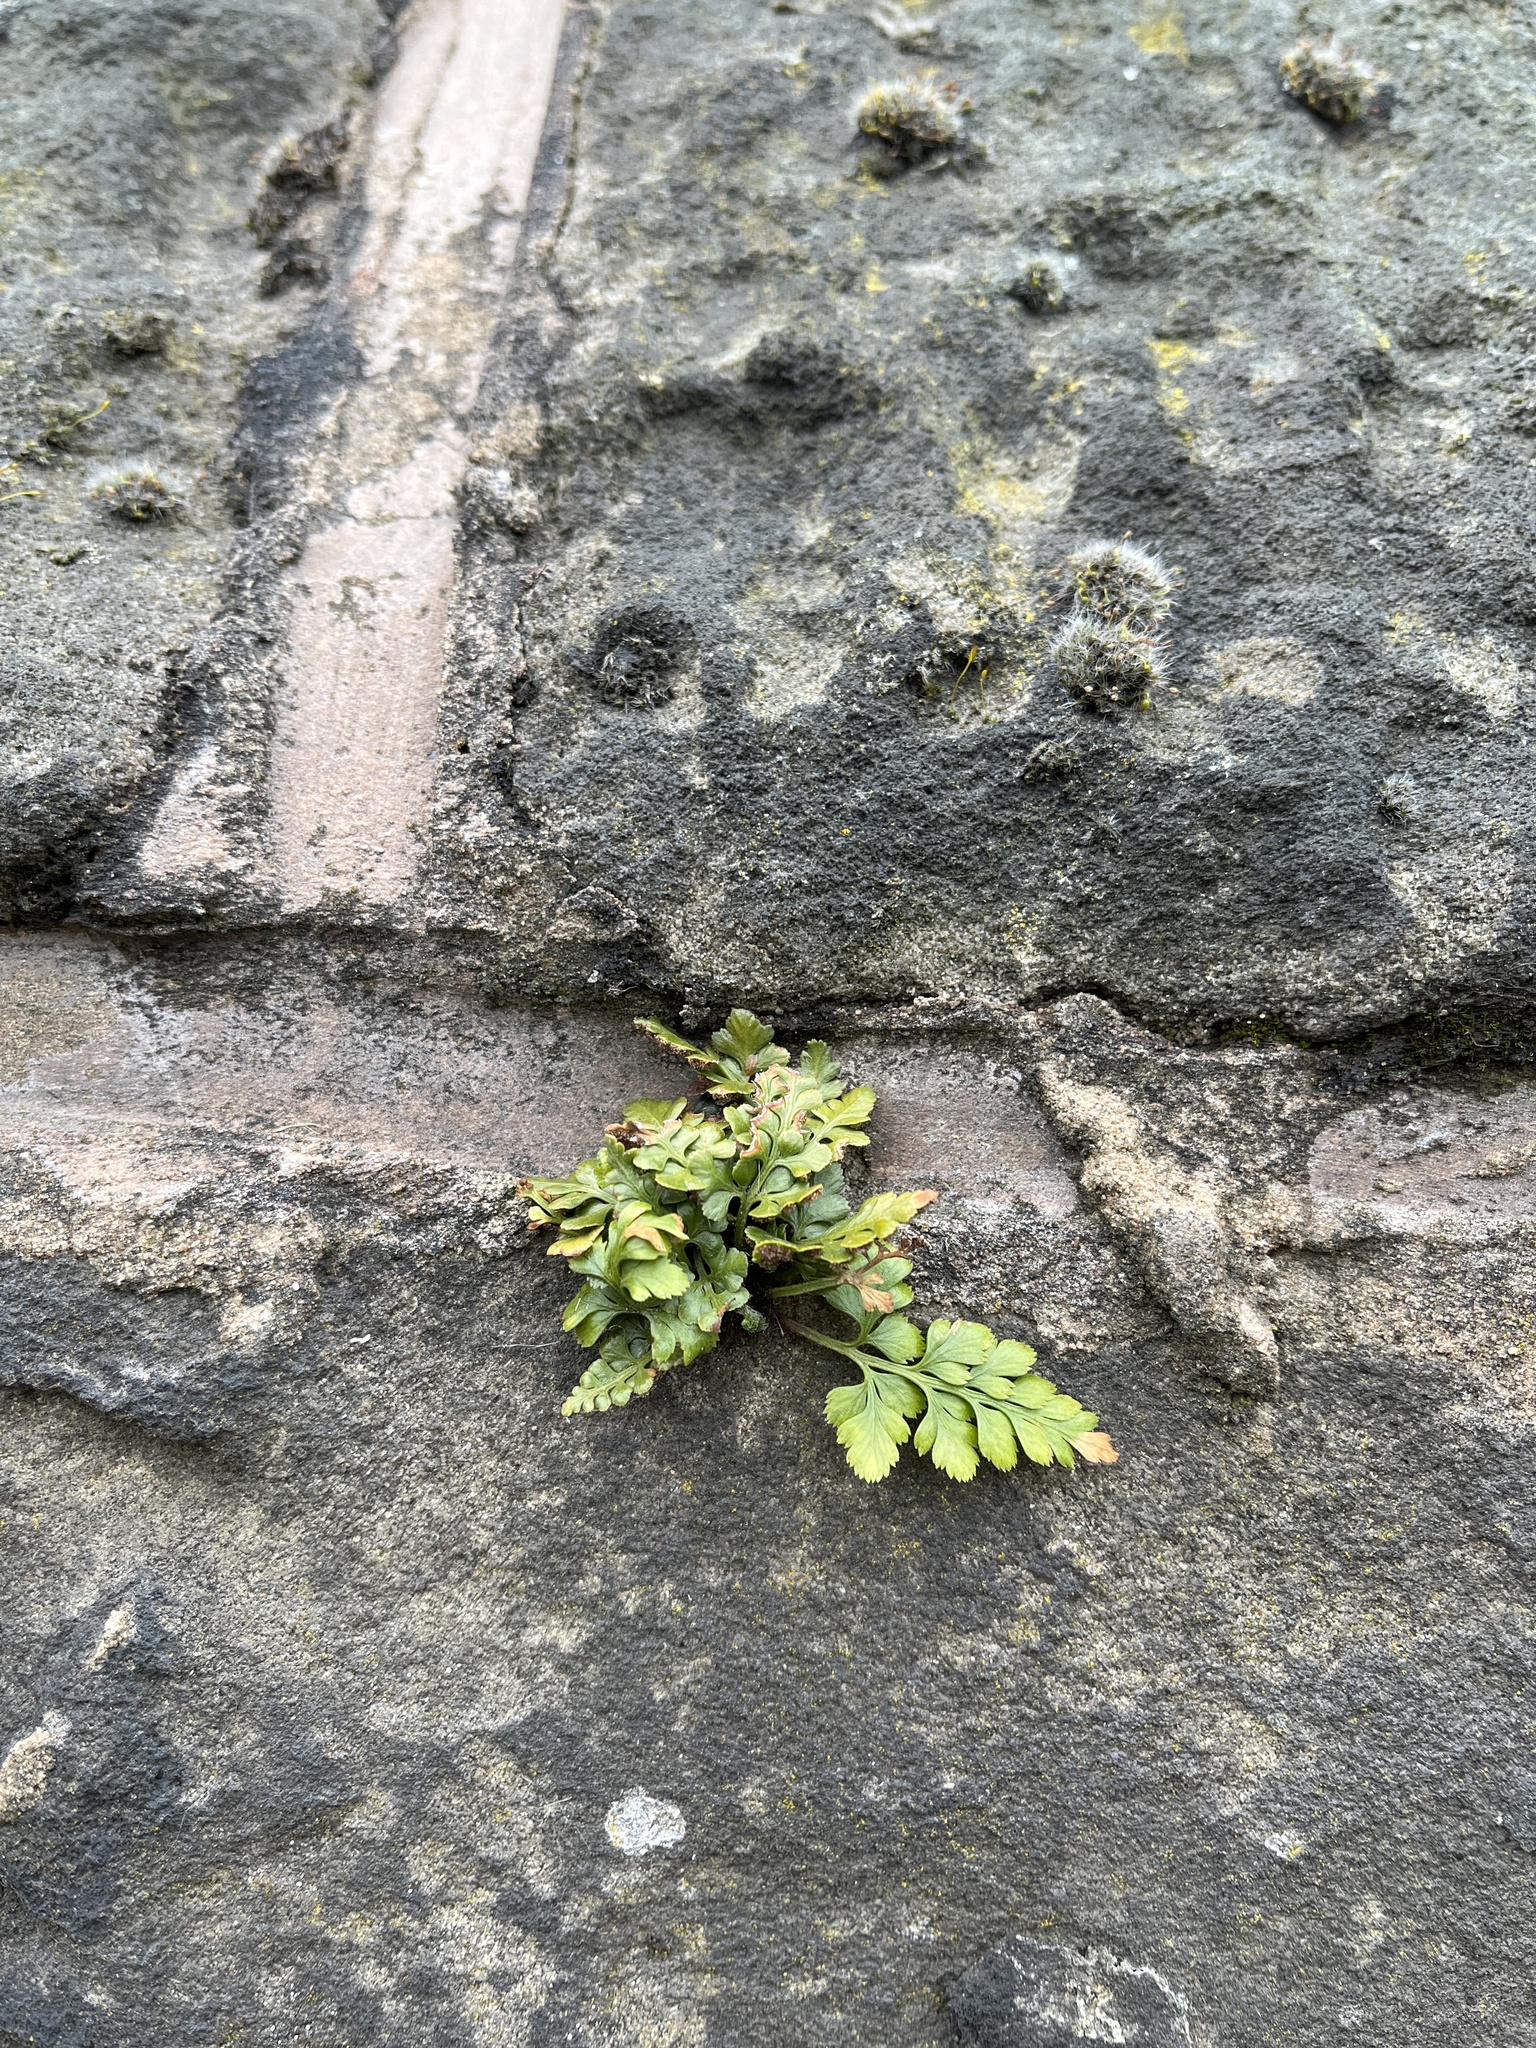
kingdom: Plantae
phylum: Tracheophyta
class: Polypodiopsida
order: Polypodiales
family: Aspleniaceae
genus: Asplenium
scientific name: Asplenium adiantum-nigrum
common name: Black spleenwort
